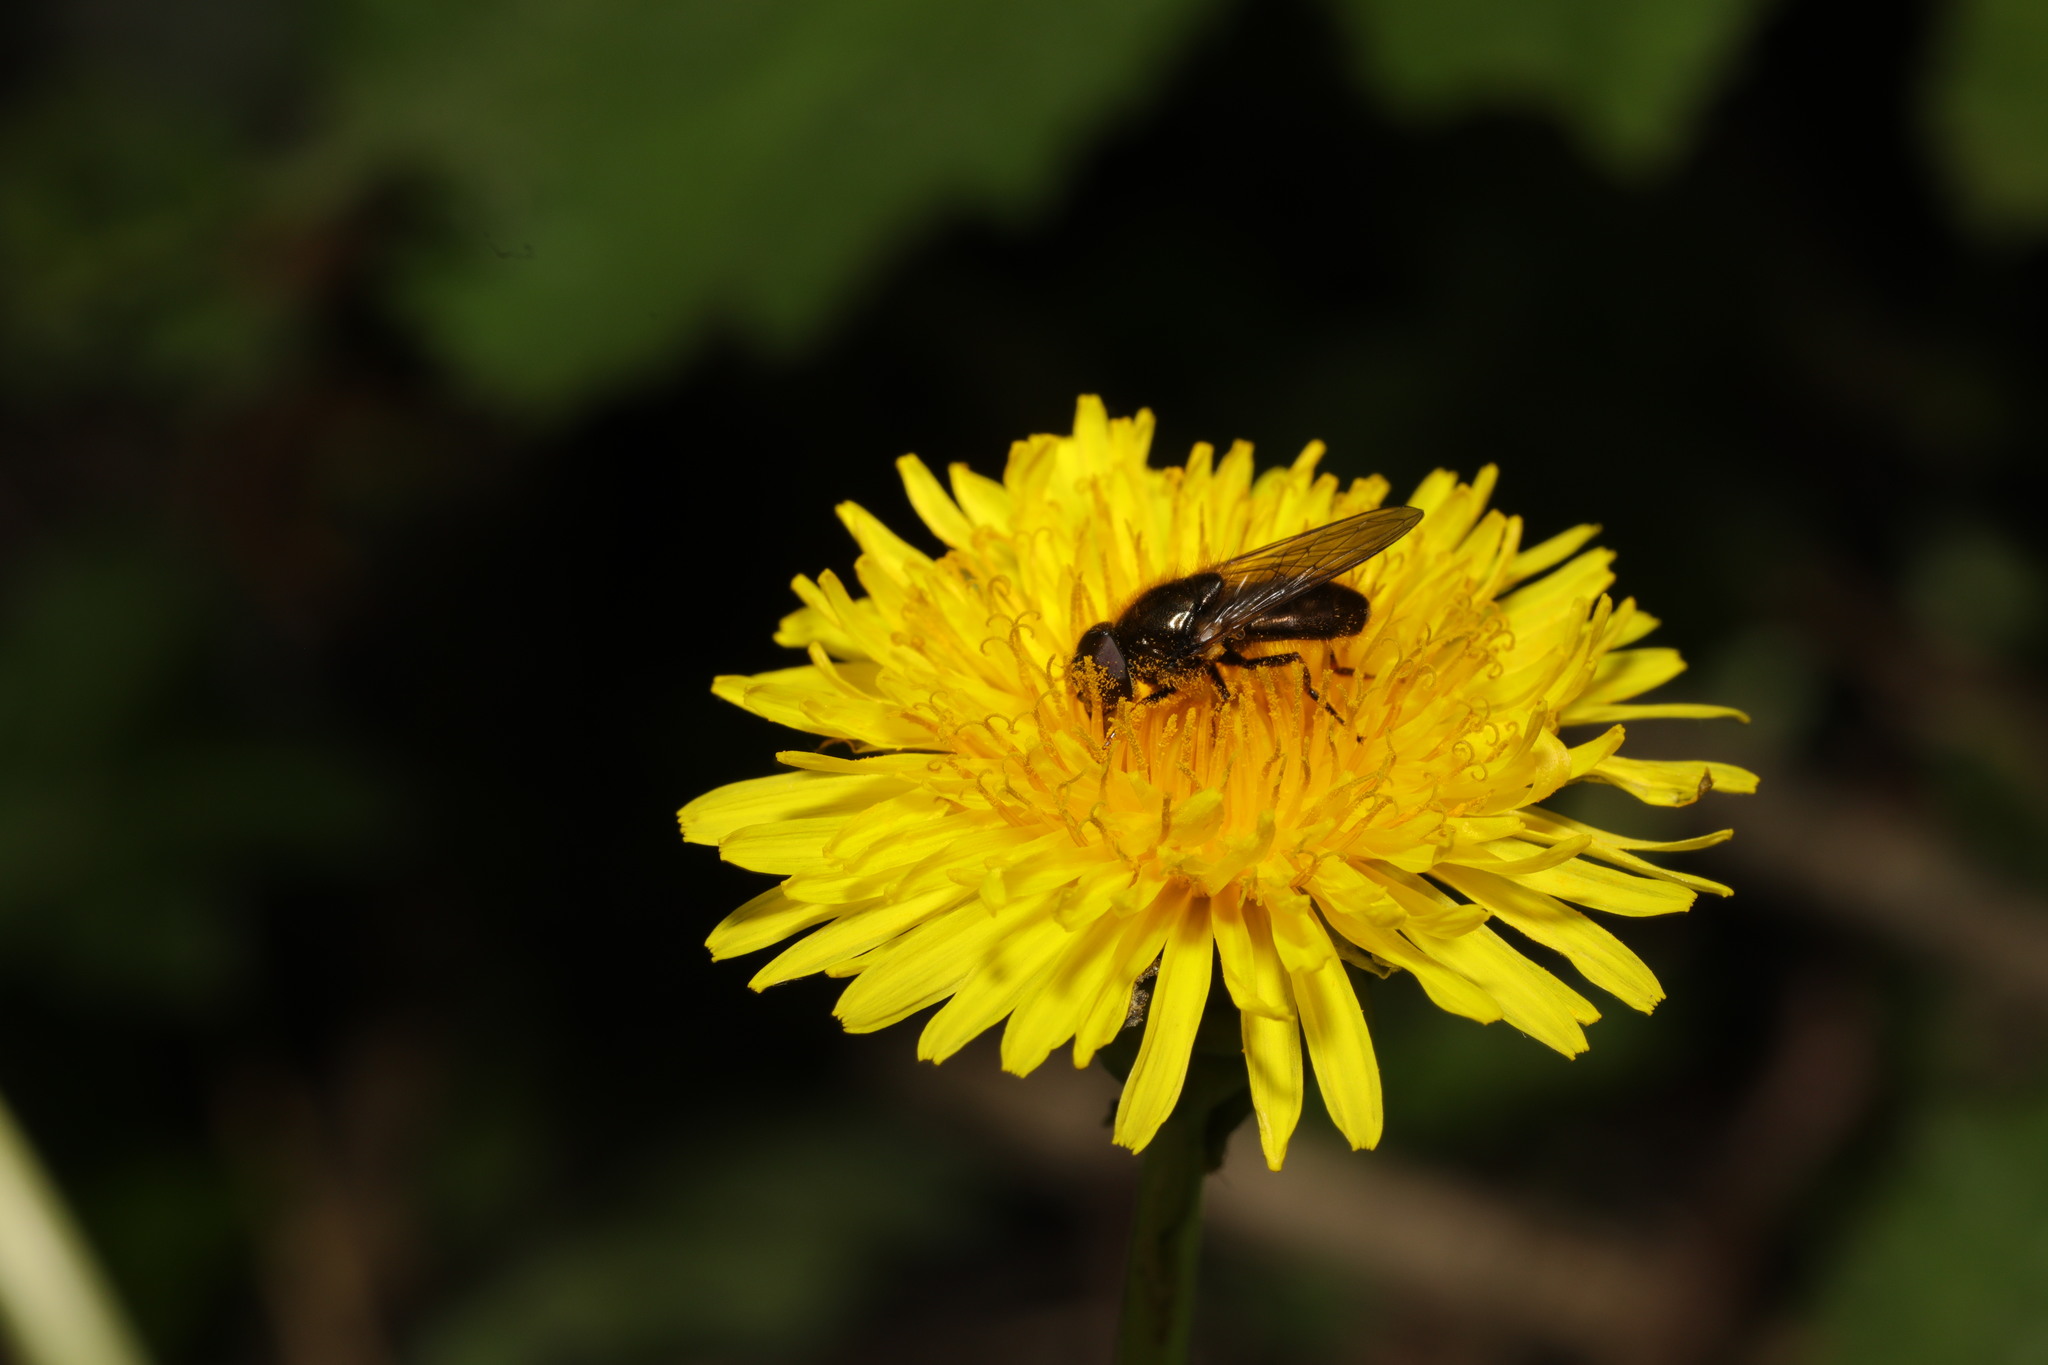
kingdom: Animalia
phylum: Arthropoda
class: Insecta
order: Diptera
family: Syrphidae
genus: Cheilosia
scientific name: Cheilosia
